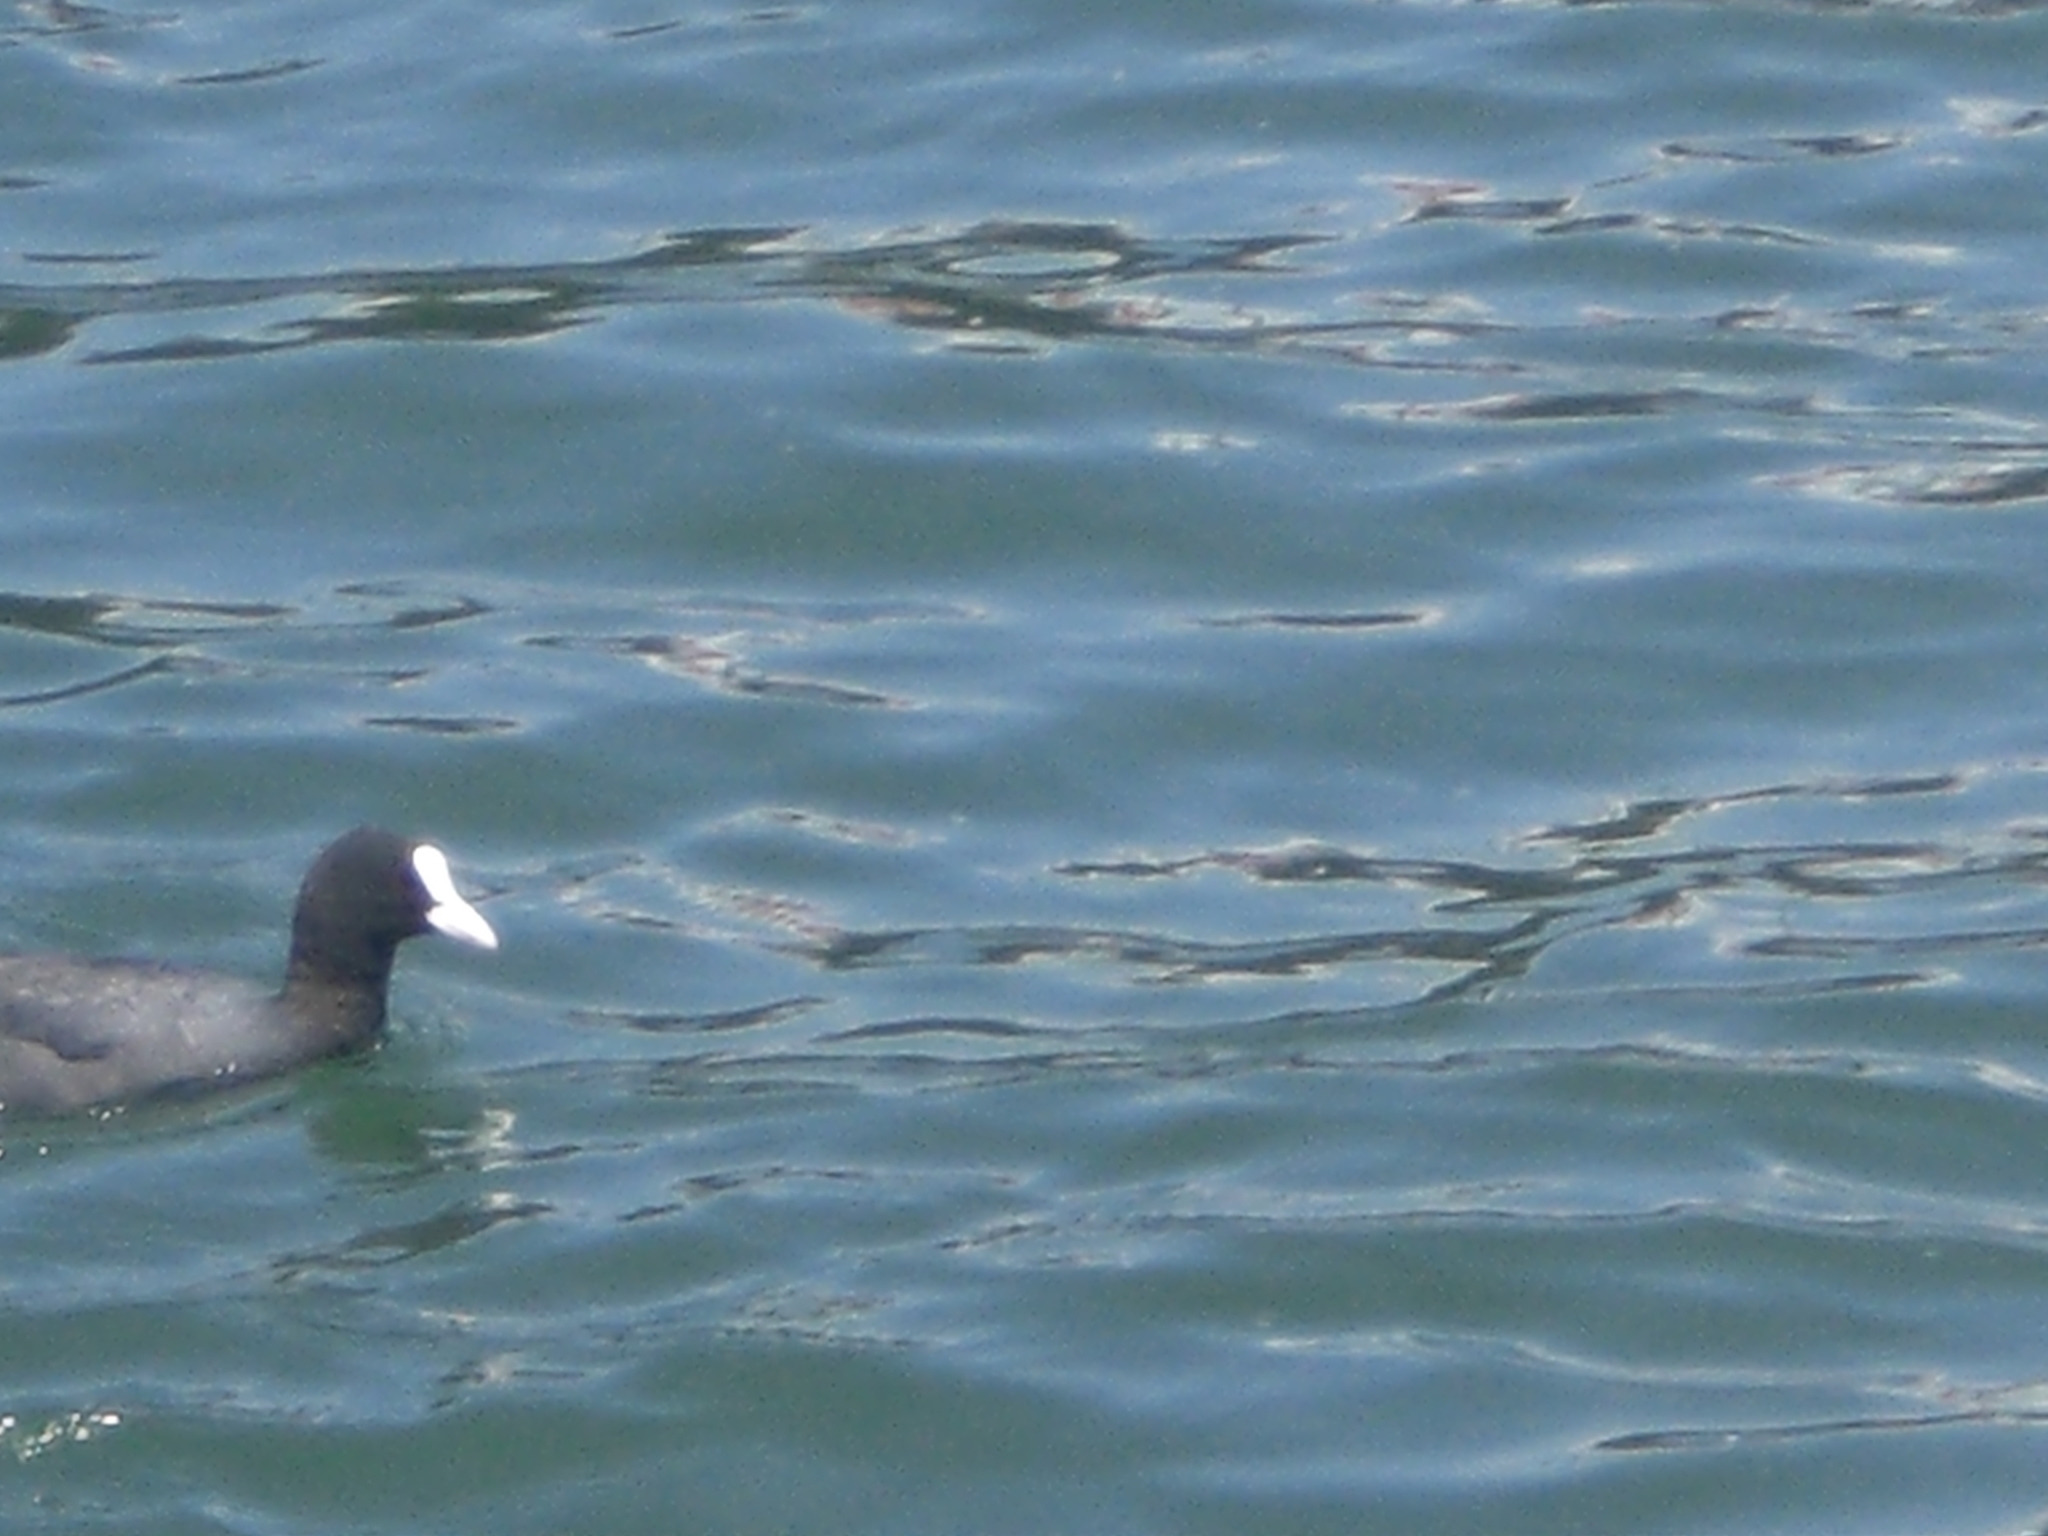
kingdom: Animalia
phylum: Chordata
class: Aves
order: Gruiformes
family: Rallidae
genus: Fulica
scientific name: Fulica atra
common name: Eurasian coot
